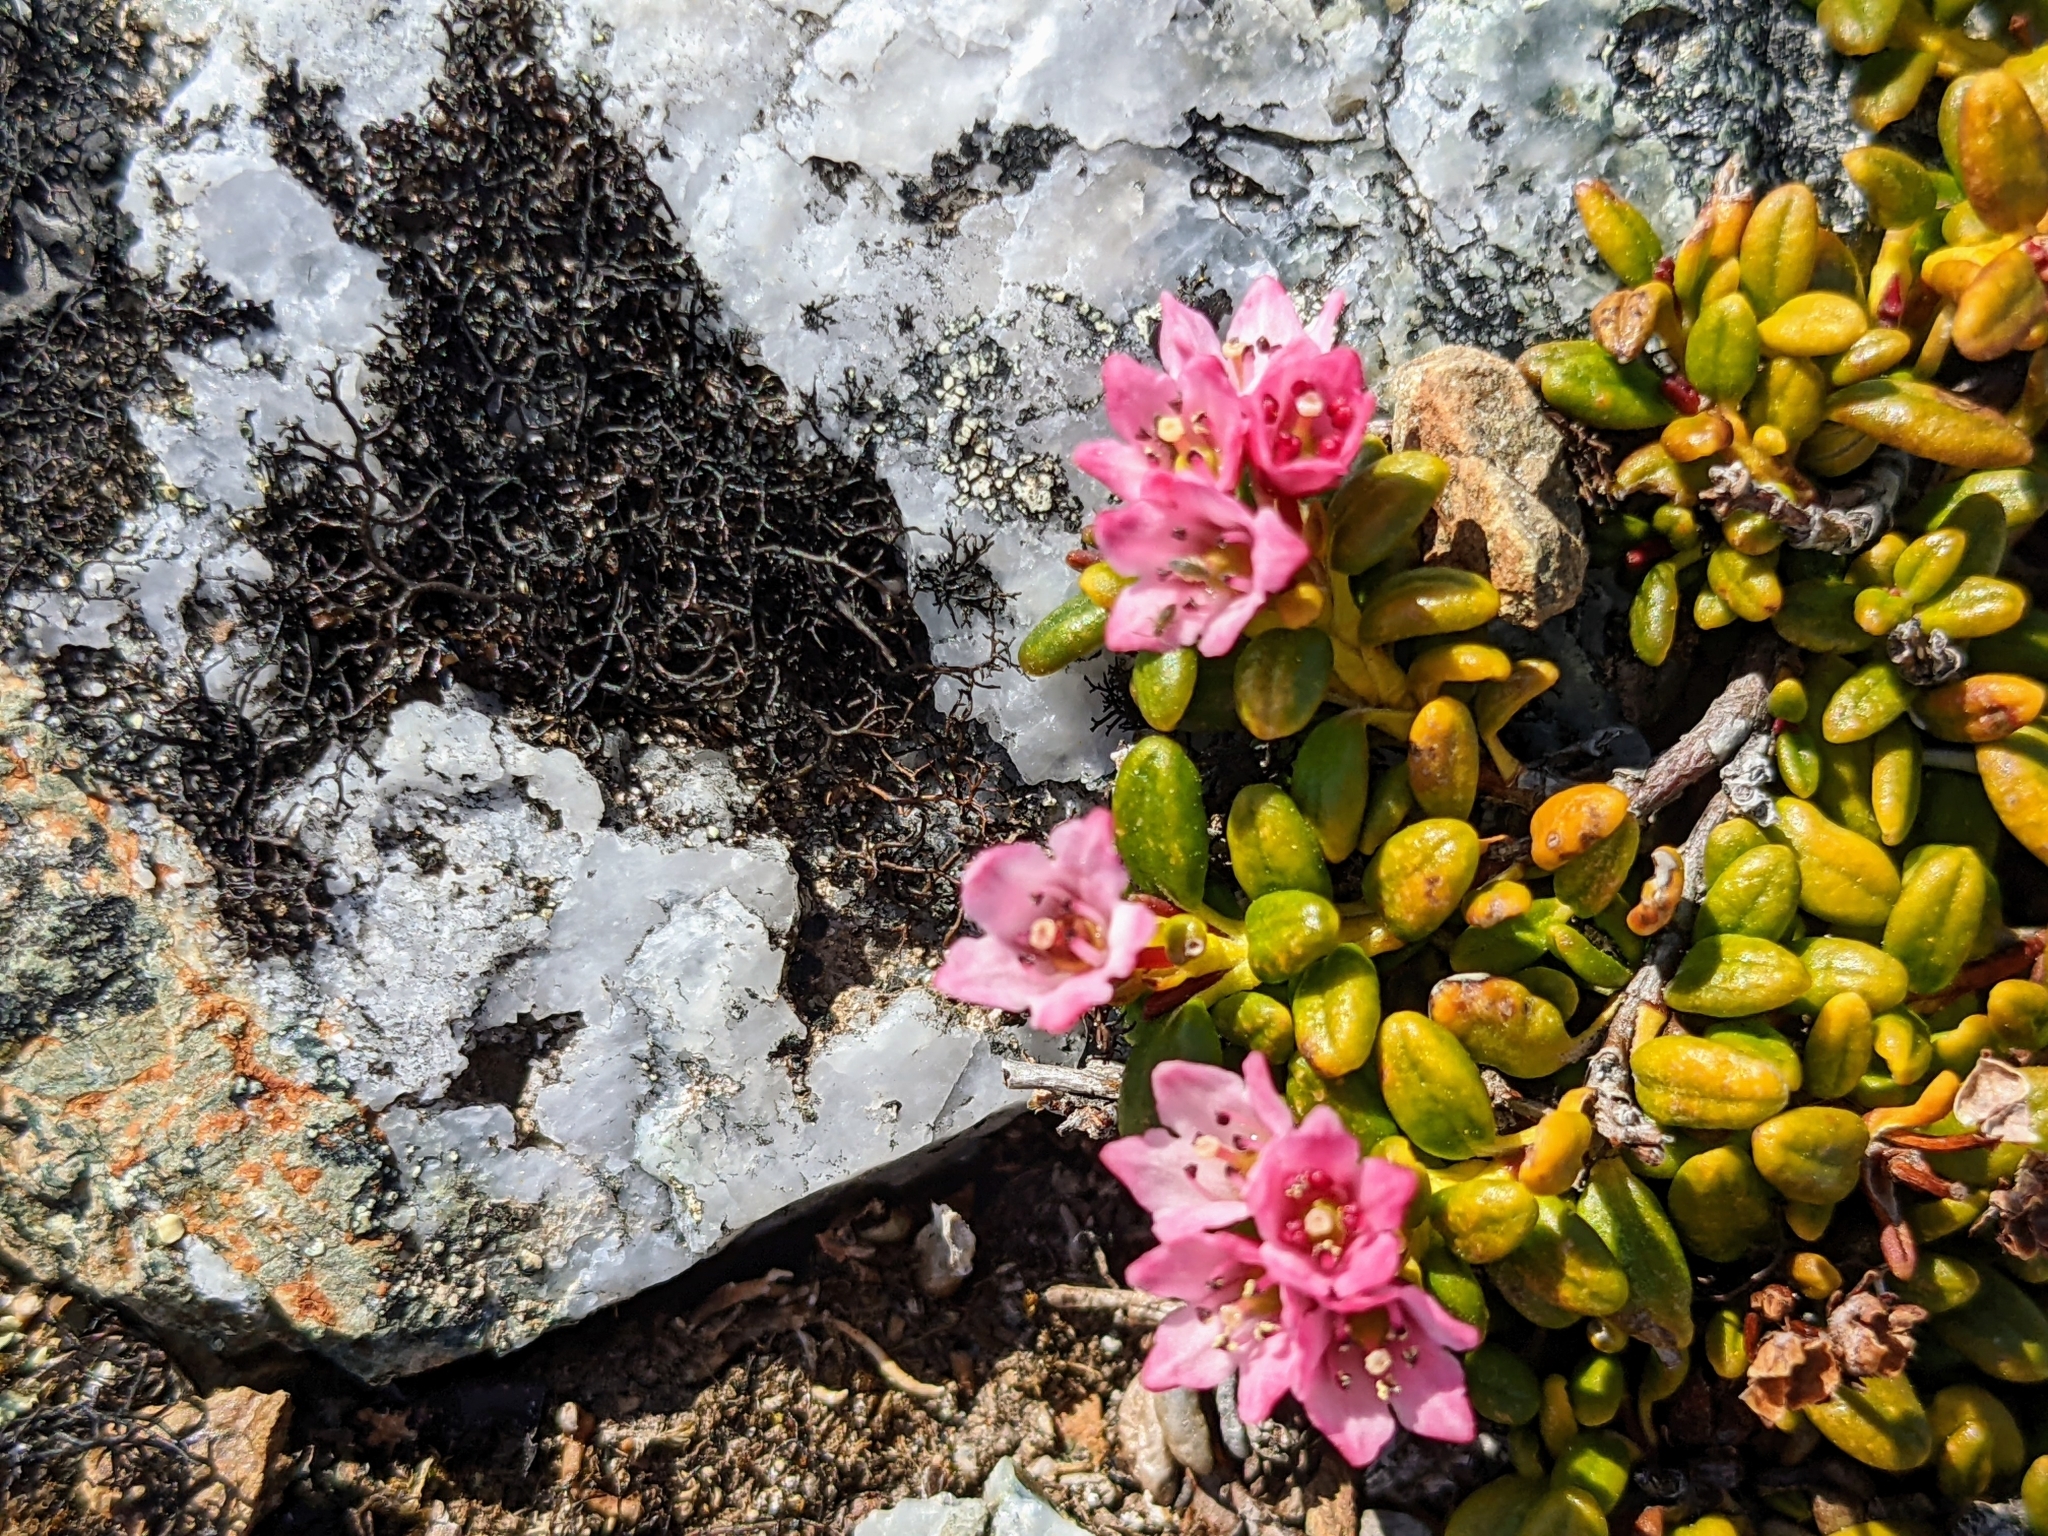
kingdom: Plantae
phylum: Tracheophyta
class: Magnoliopsida
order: Ericales
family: Ericaceae
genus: Kalmia
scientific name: Kalmia procumbens
